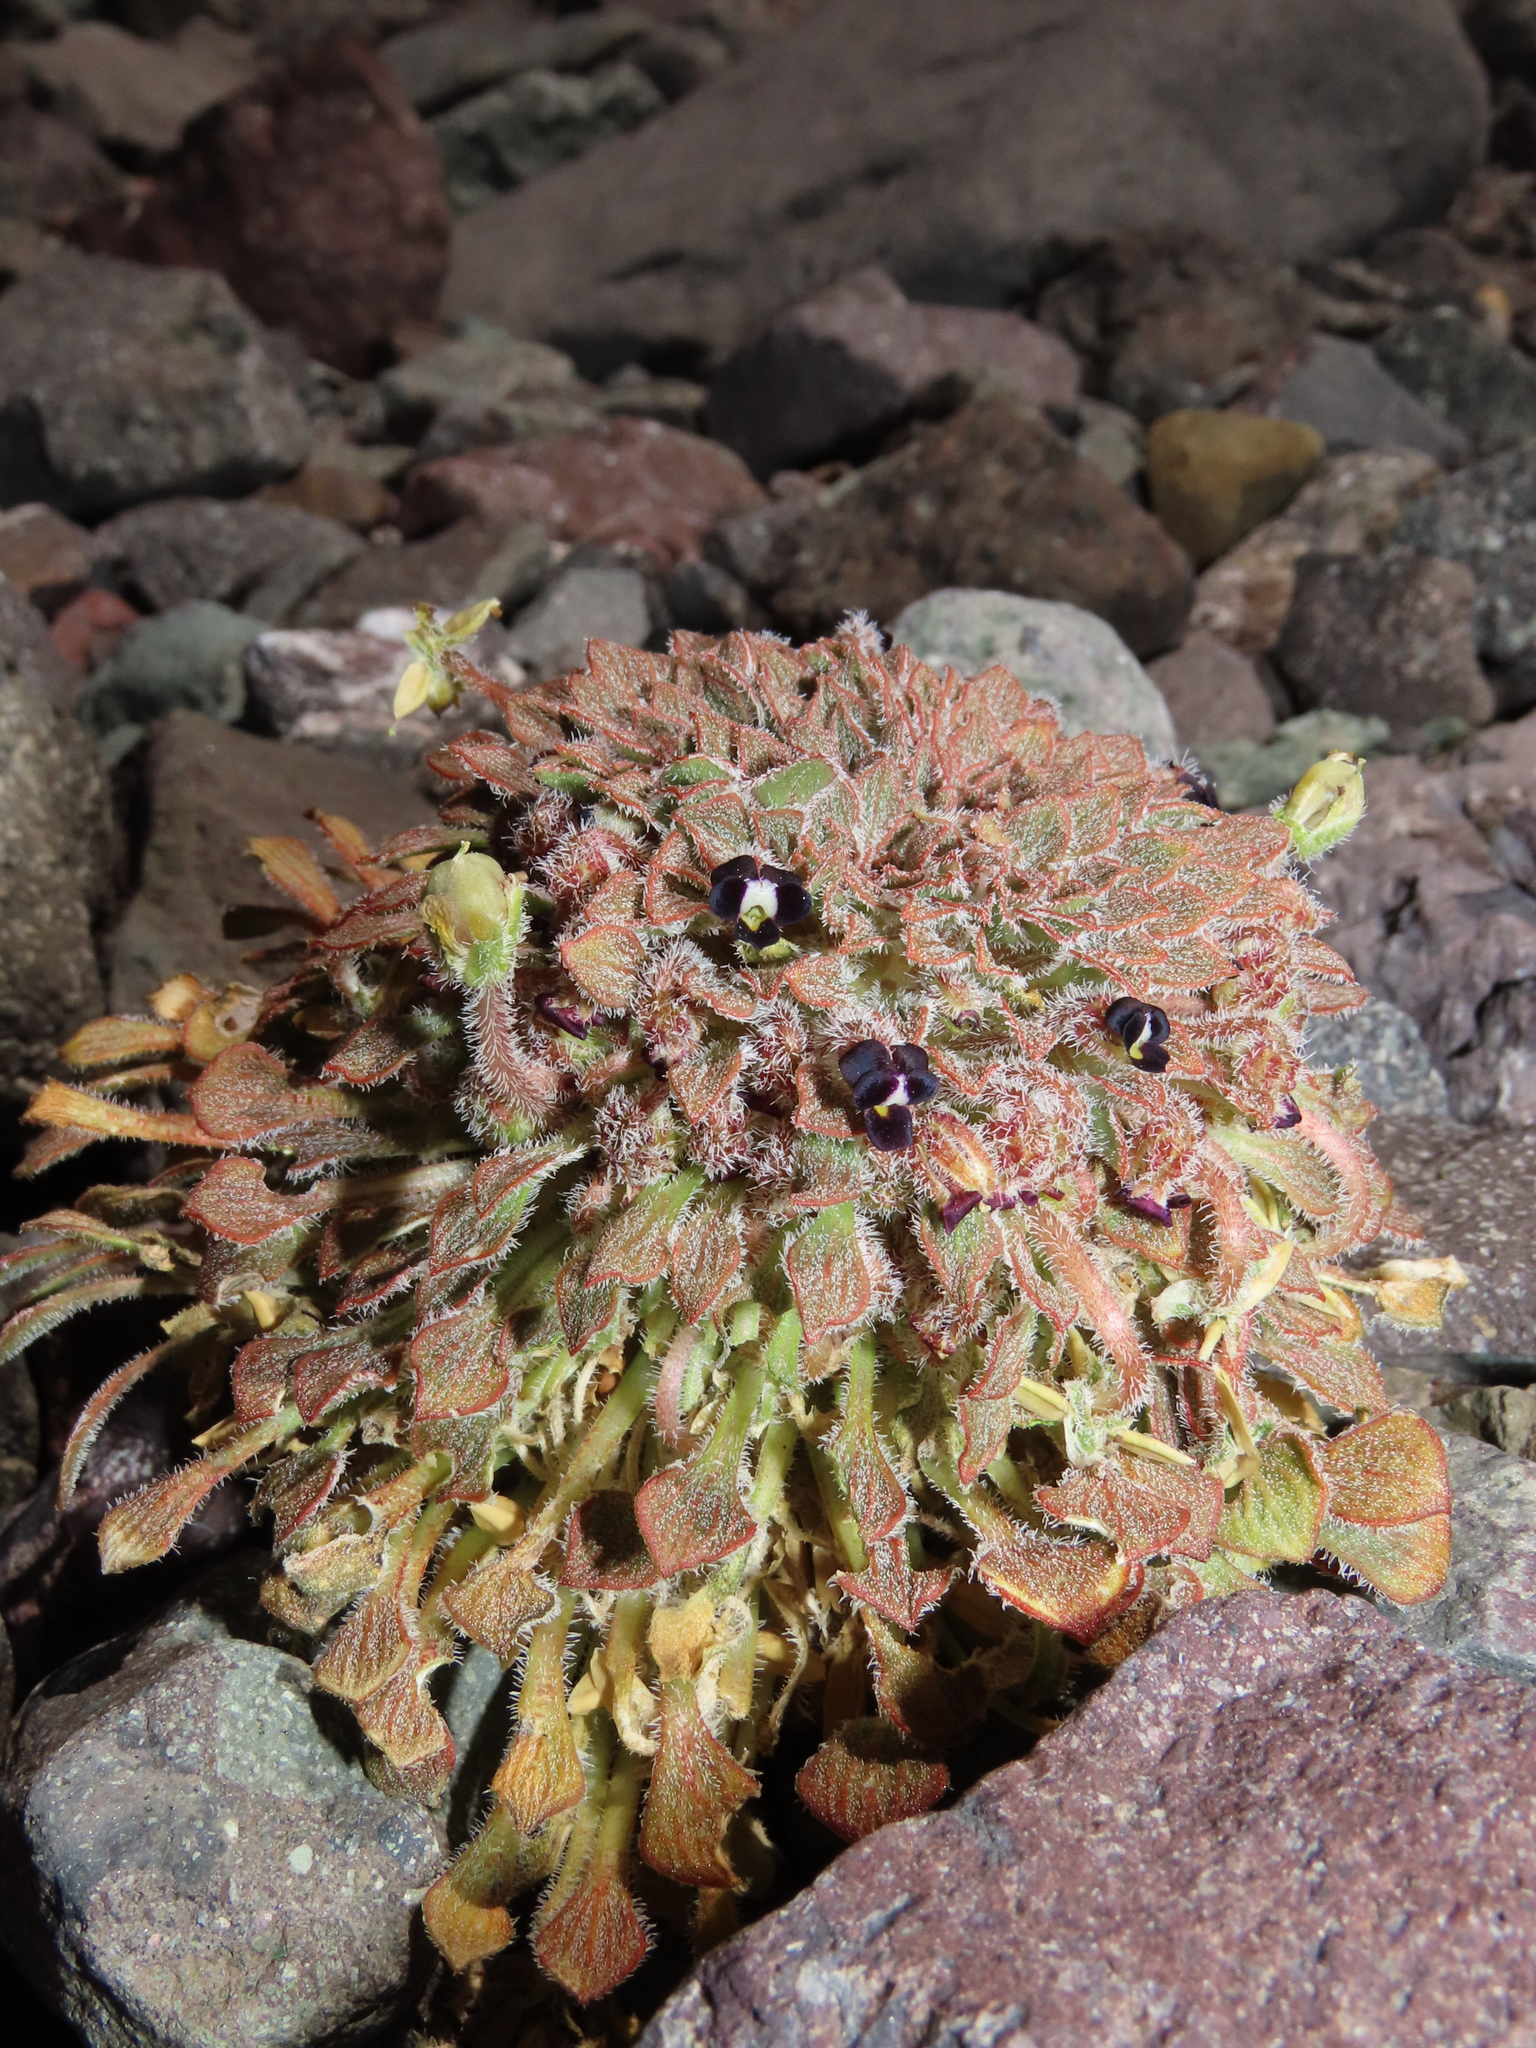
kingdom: Plantae
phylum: Tracheophyta
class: Magnoliopsida
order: Malpighiales
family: Violaceae
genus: Viola
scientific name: Viola montagnei
